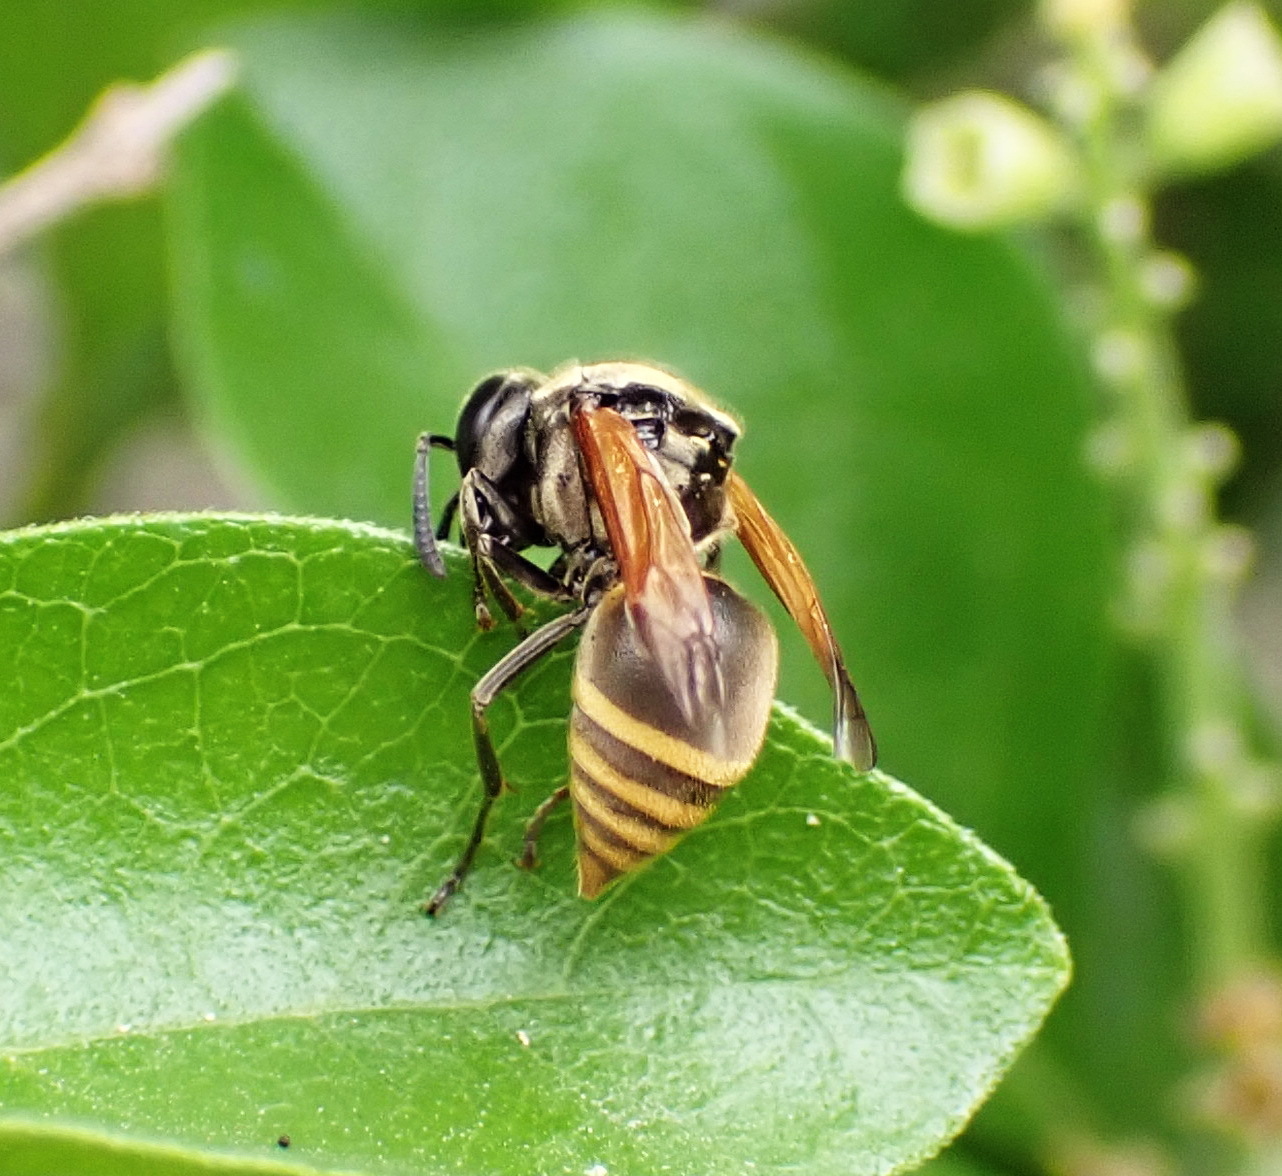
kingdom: Animalia
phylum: Arthropoda
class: Insecta
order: Hymenoptera
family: Vespidae
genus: Brachygastra
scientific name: Brachygastra mellifica
